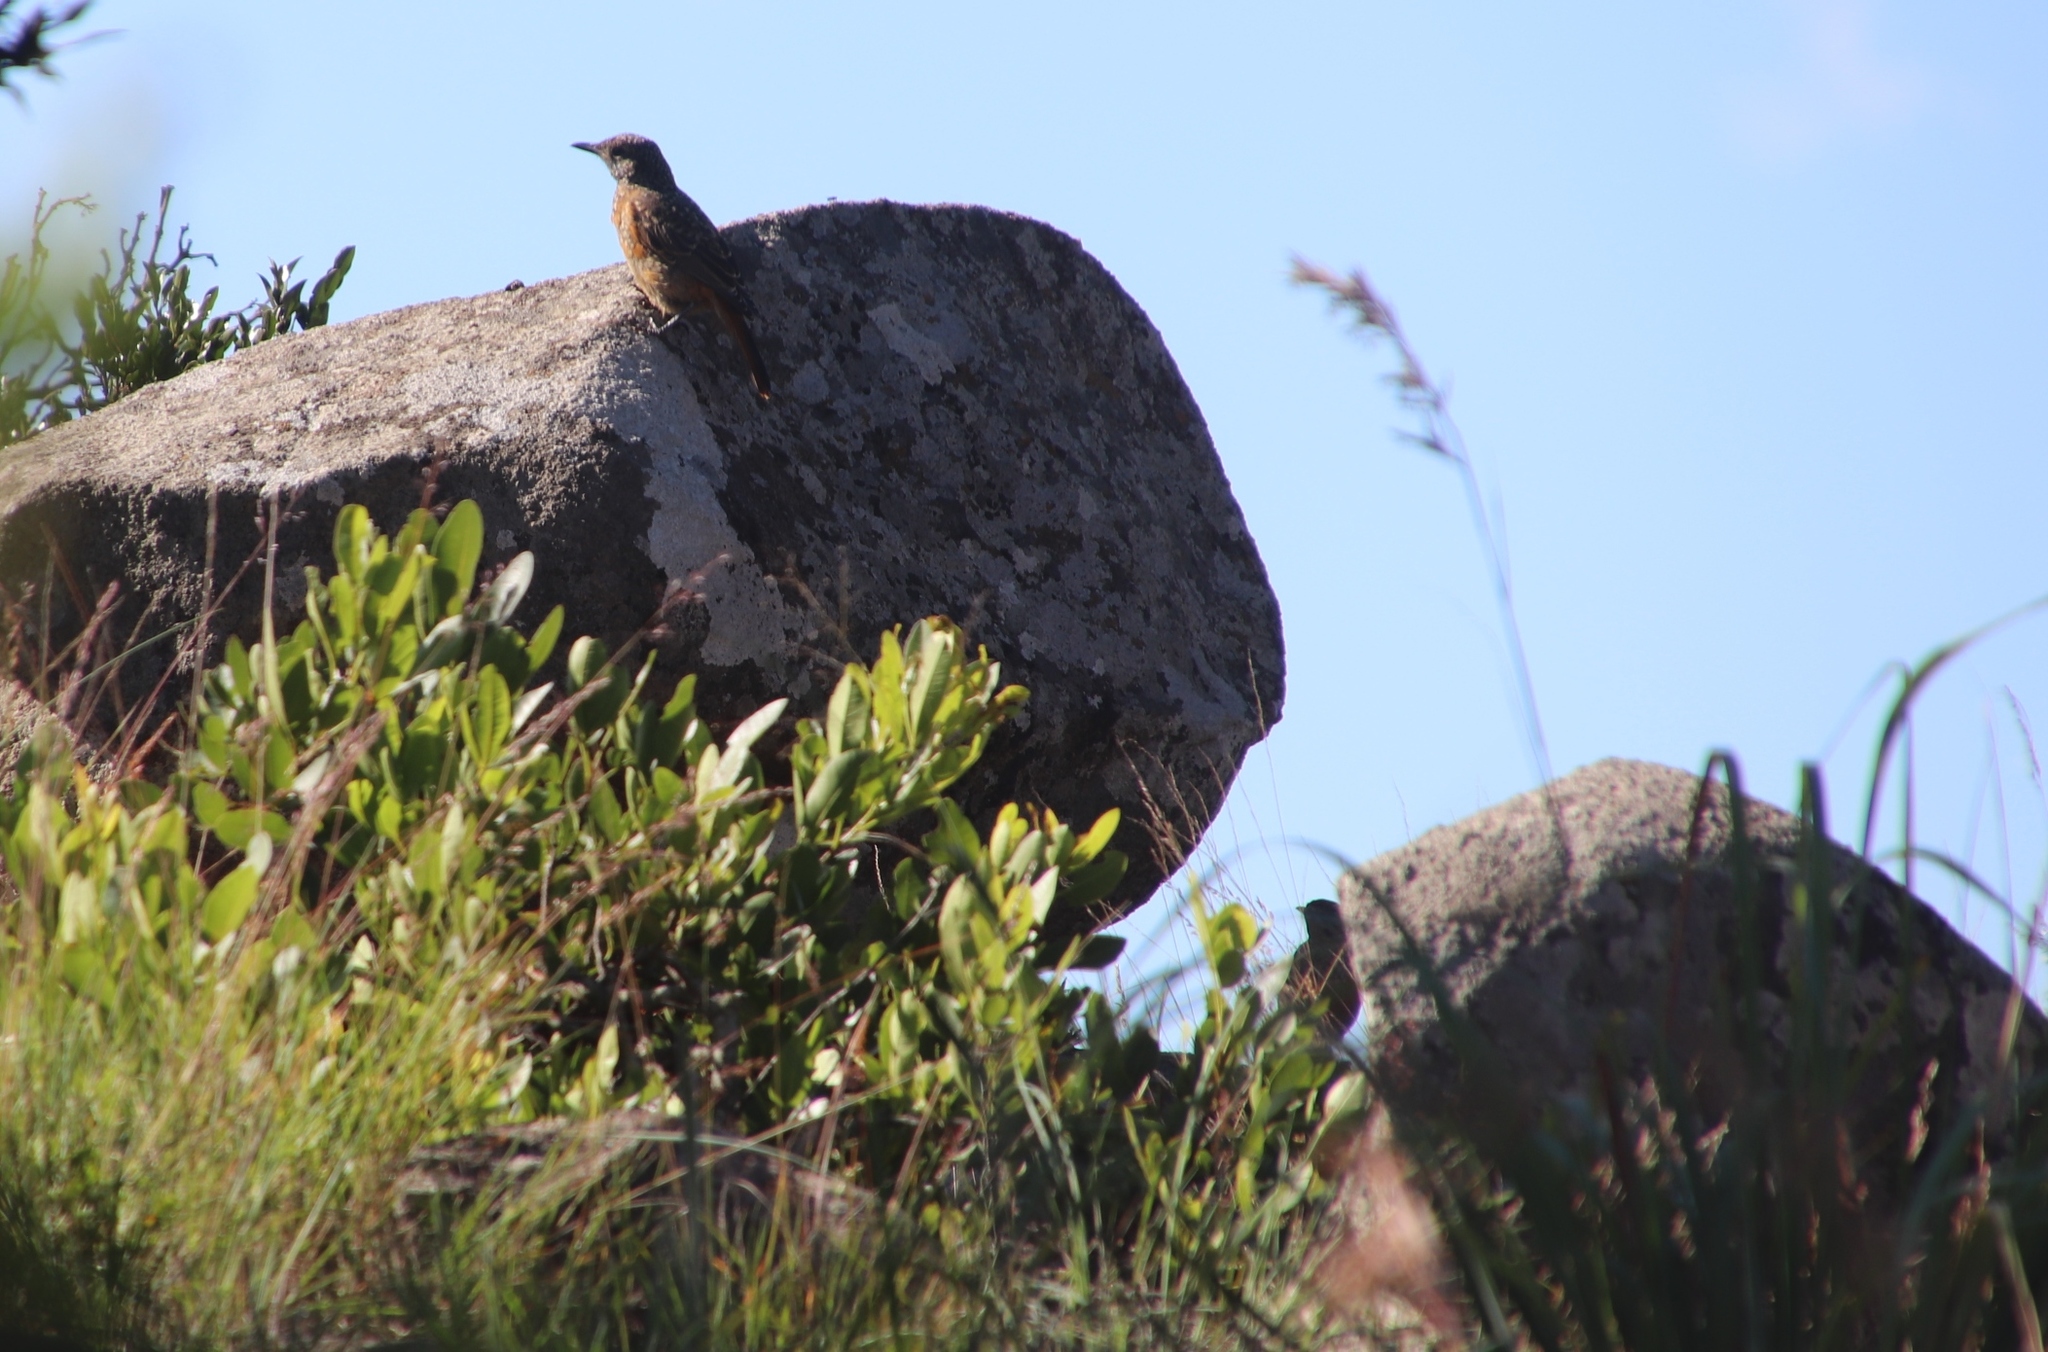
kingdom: Animalia
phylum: Chordata
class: Aves
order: Passeriformes
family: Muscicapidae
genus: Monticola
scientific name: Monticola rupestris
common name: Cape rock thrush
